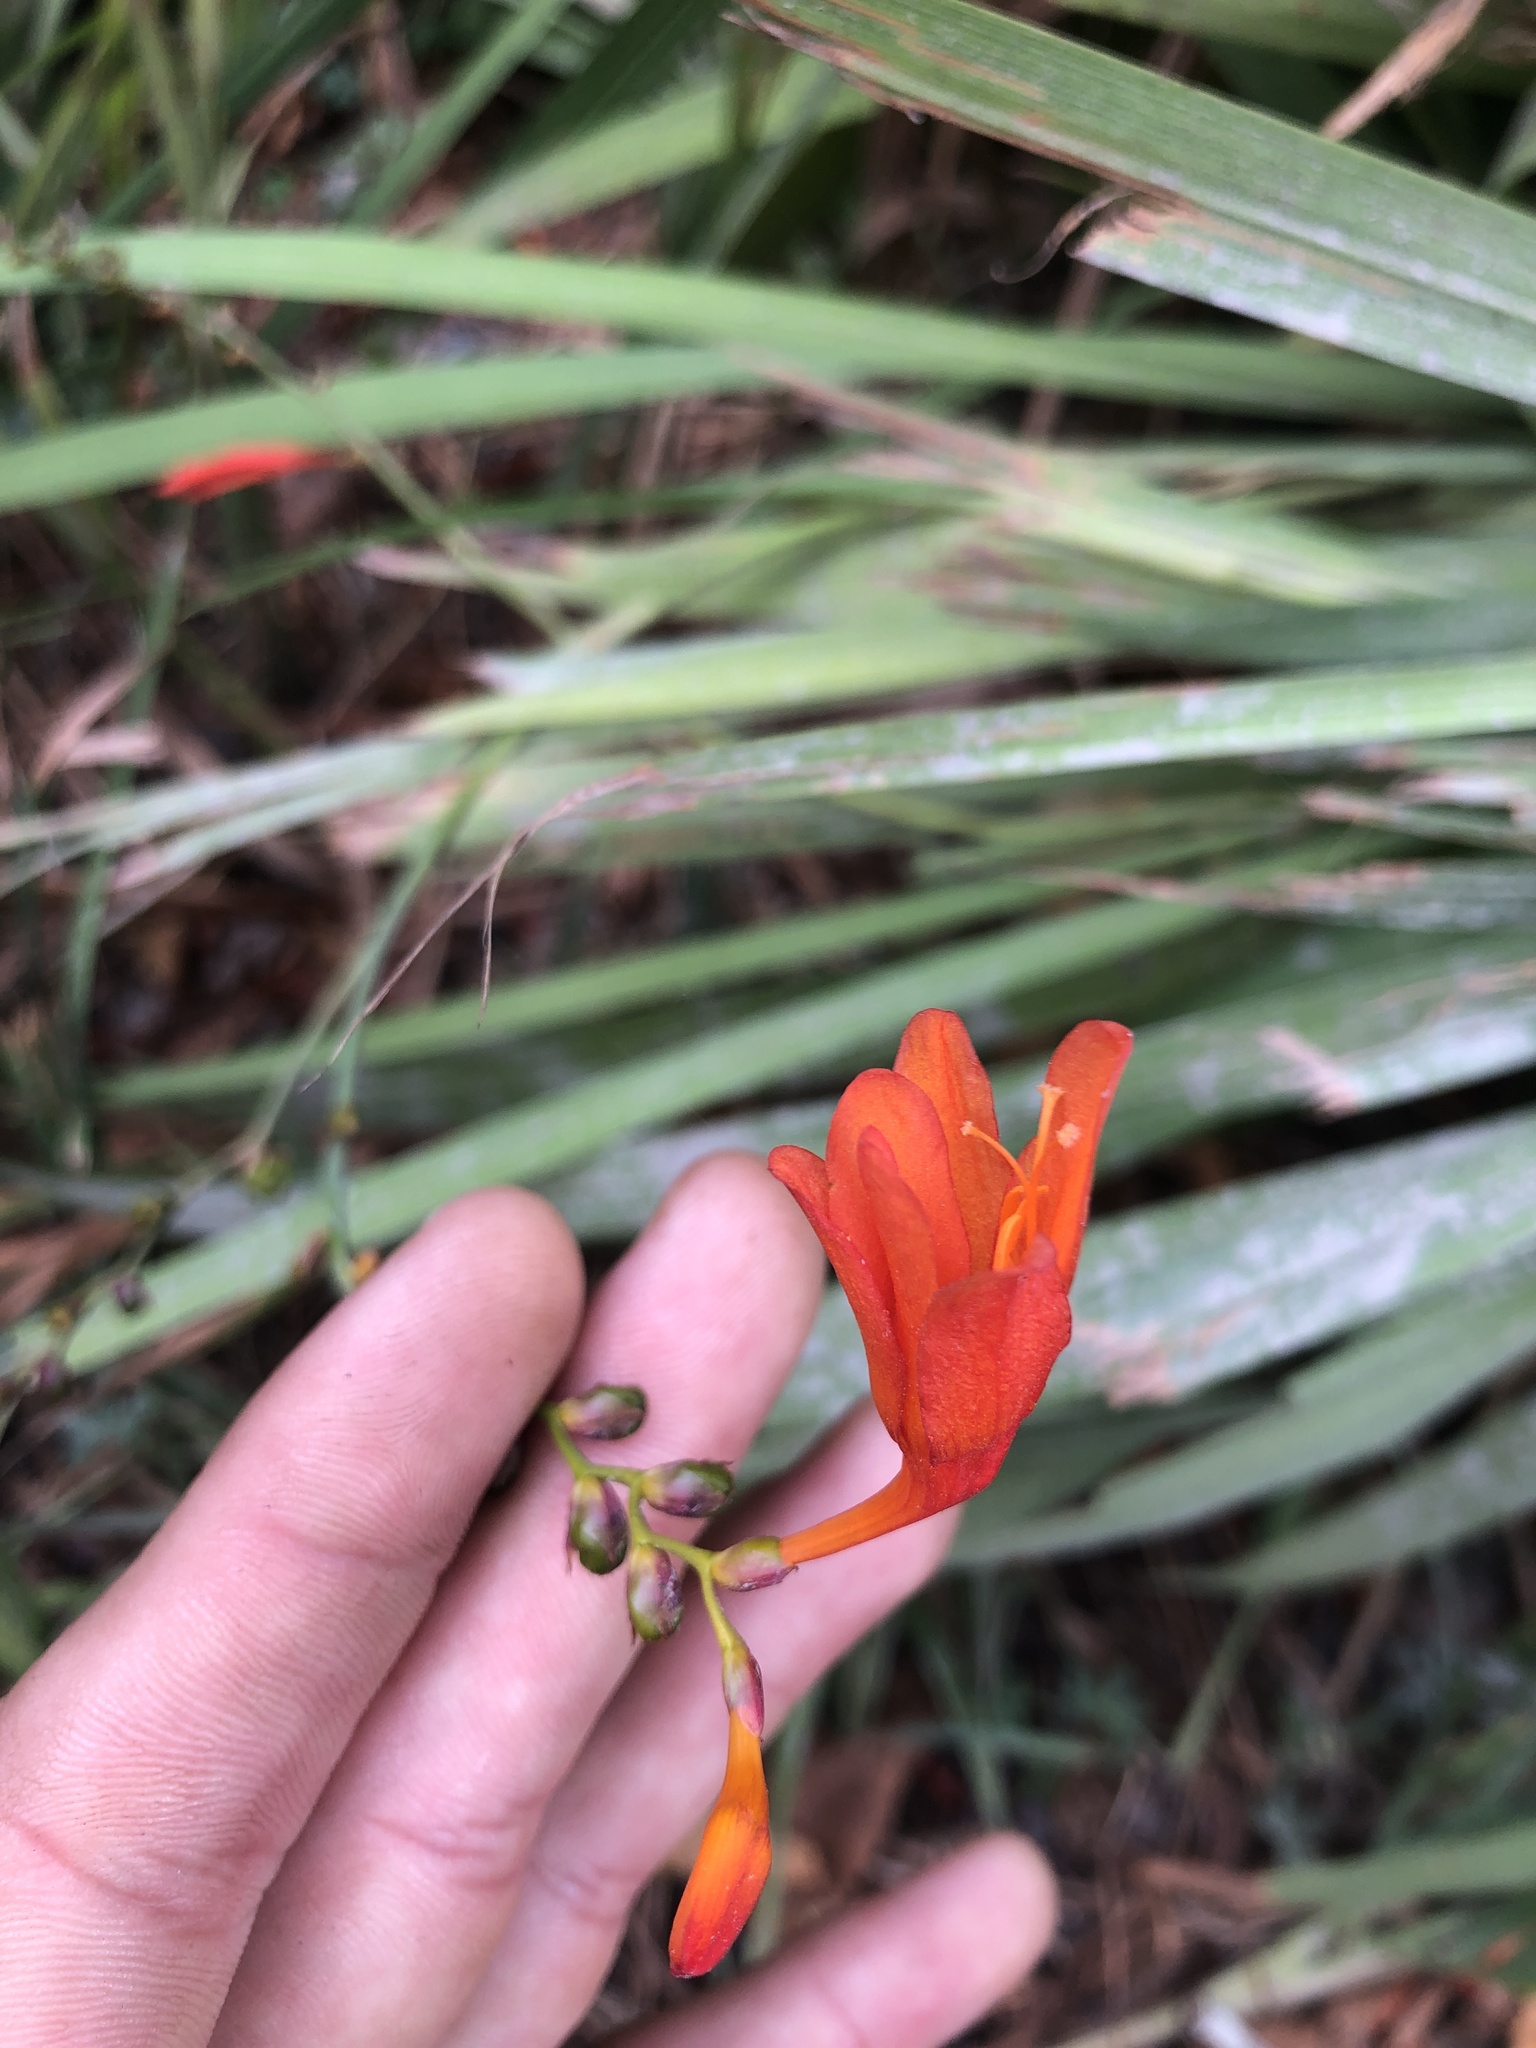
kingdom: Plantae
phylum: Tracheophyta
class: Liliopsida
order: Asparagales
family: Iridaceae
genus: Crocosmia
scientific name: Crocosmia crocosmiiflora
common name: Montbretia
